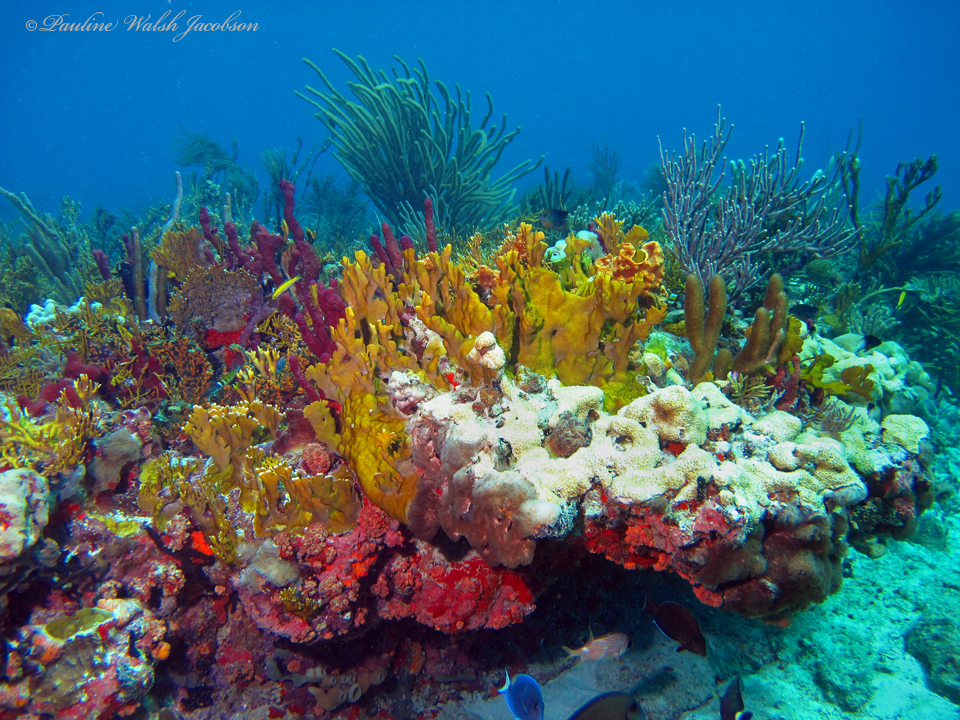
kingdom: Animalia
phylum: Cnidaria
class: Hydrozoa
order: Anthoathecata
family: Milleporidae
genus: Millepora
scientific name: Millepora complanata
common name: Bladed fire coral
